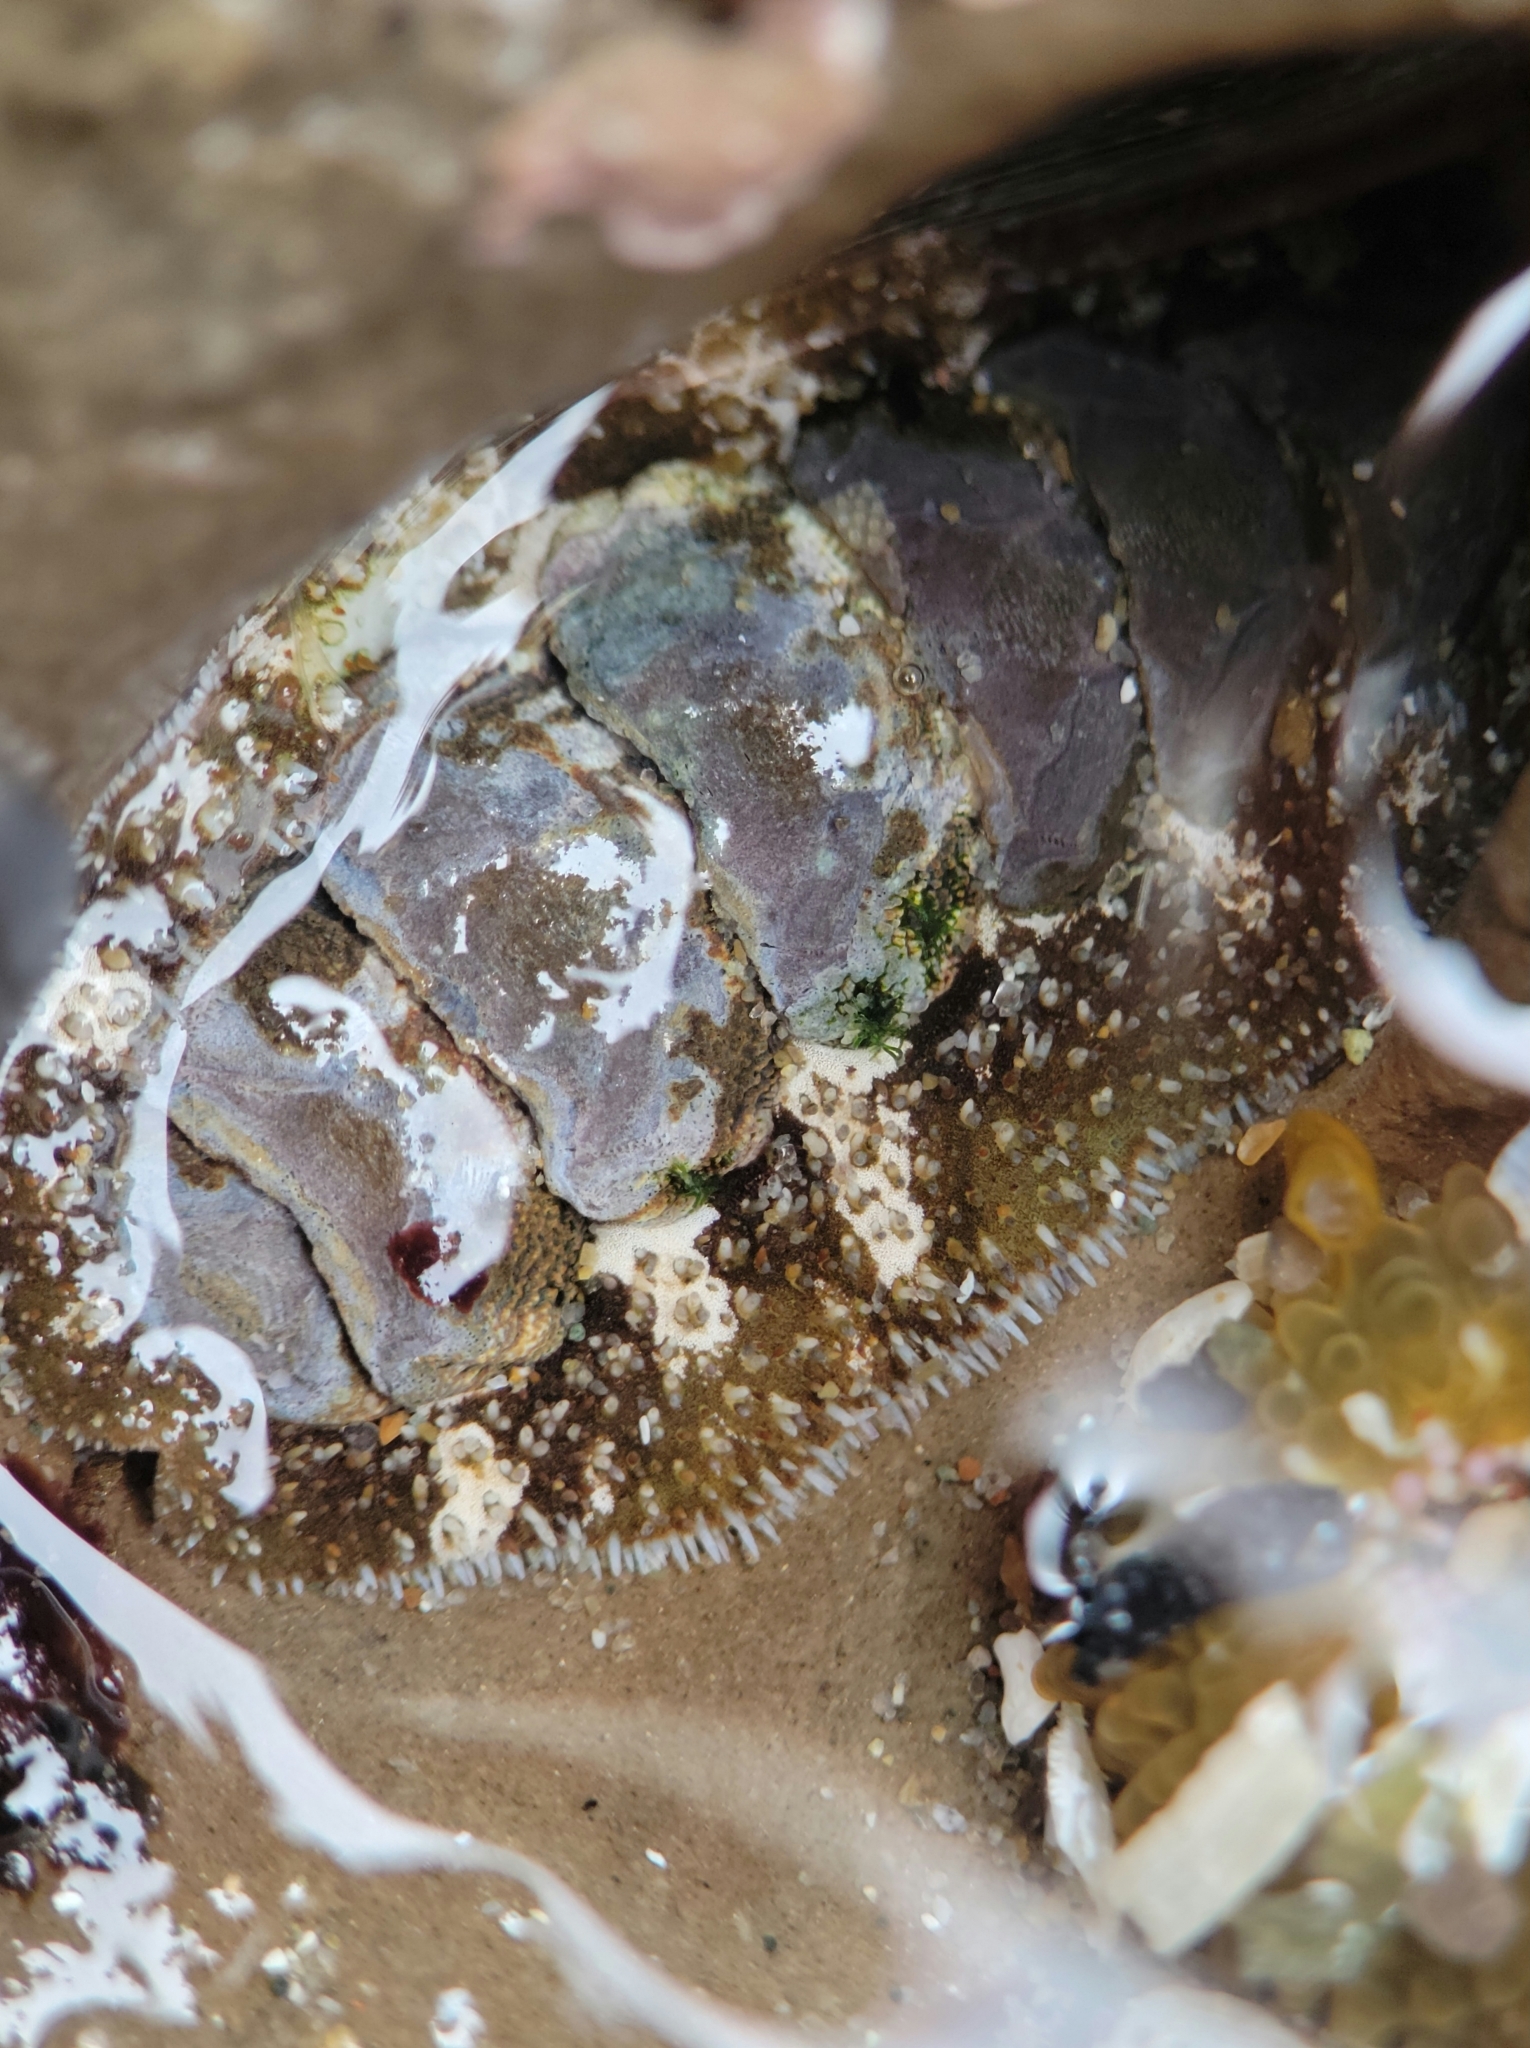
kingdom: Animalia
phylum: Mollusca
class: Polyplacophora
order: Chitonida
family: Tonicellidae
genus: Nuttallina
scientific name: Nuttallina californica
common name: California nuttall chiton
